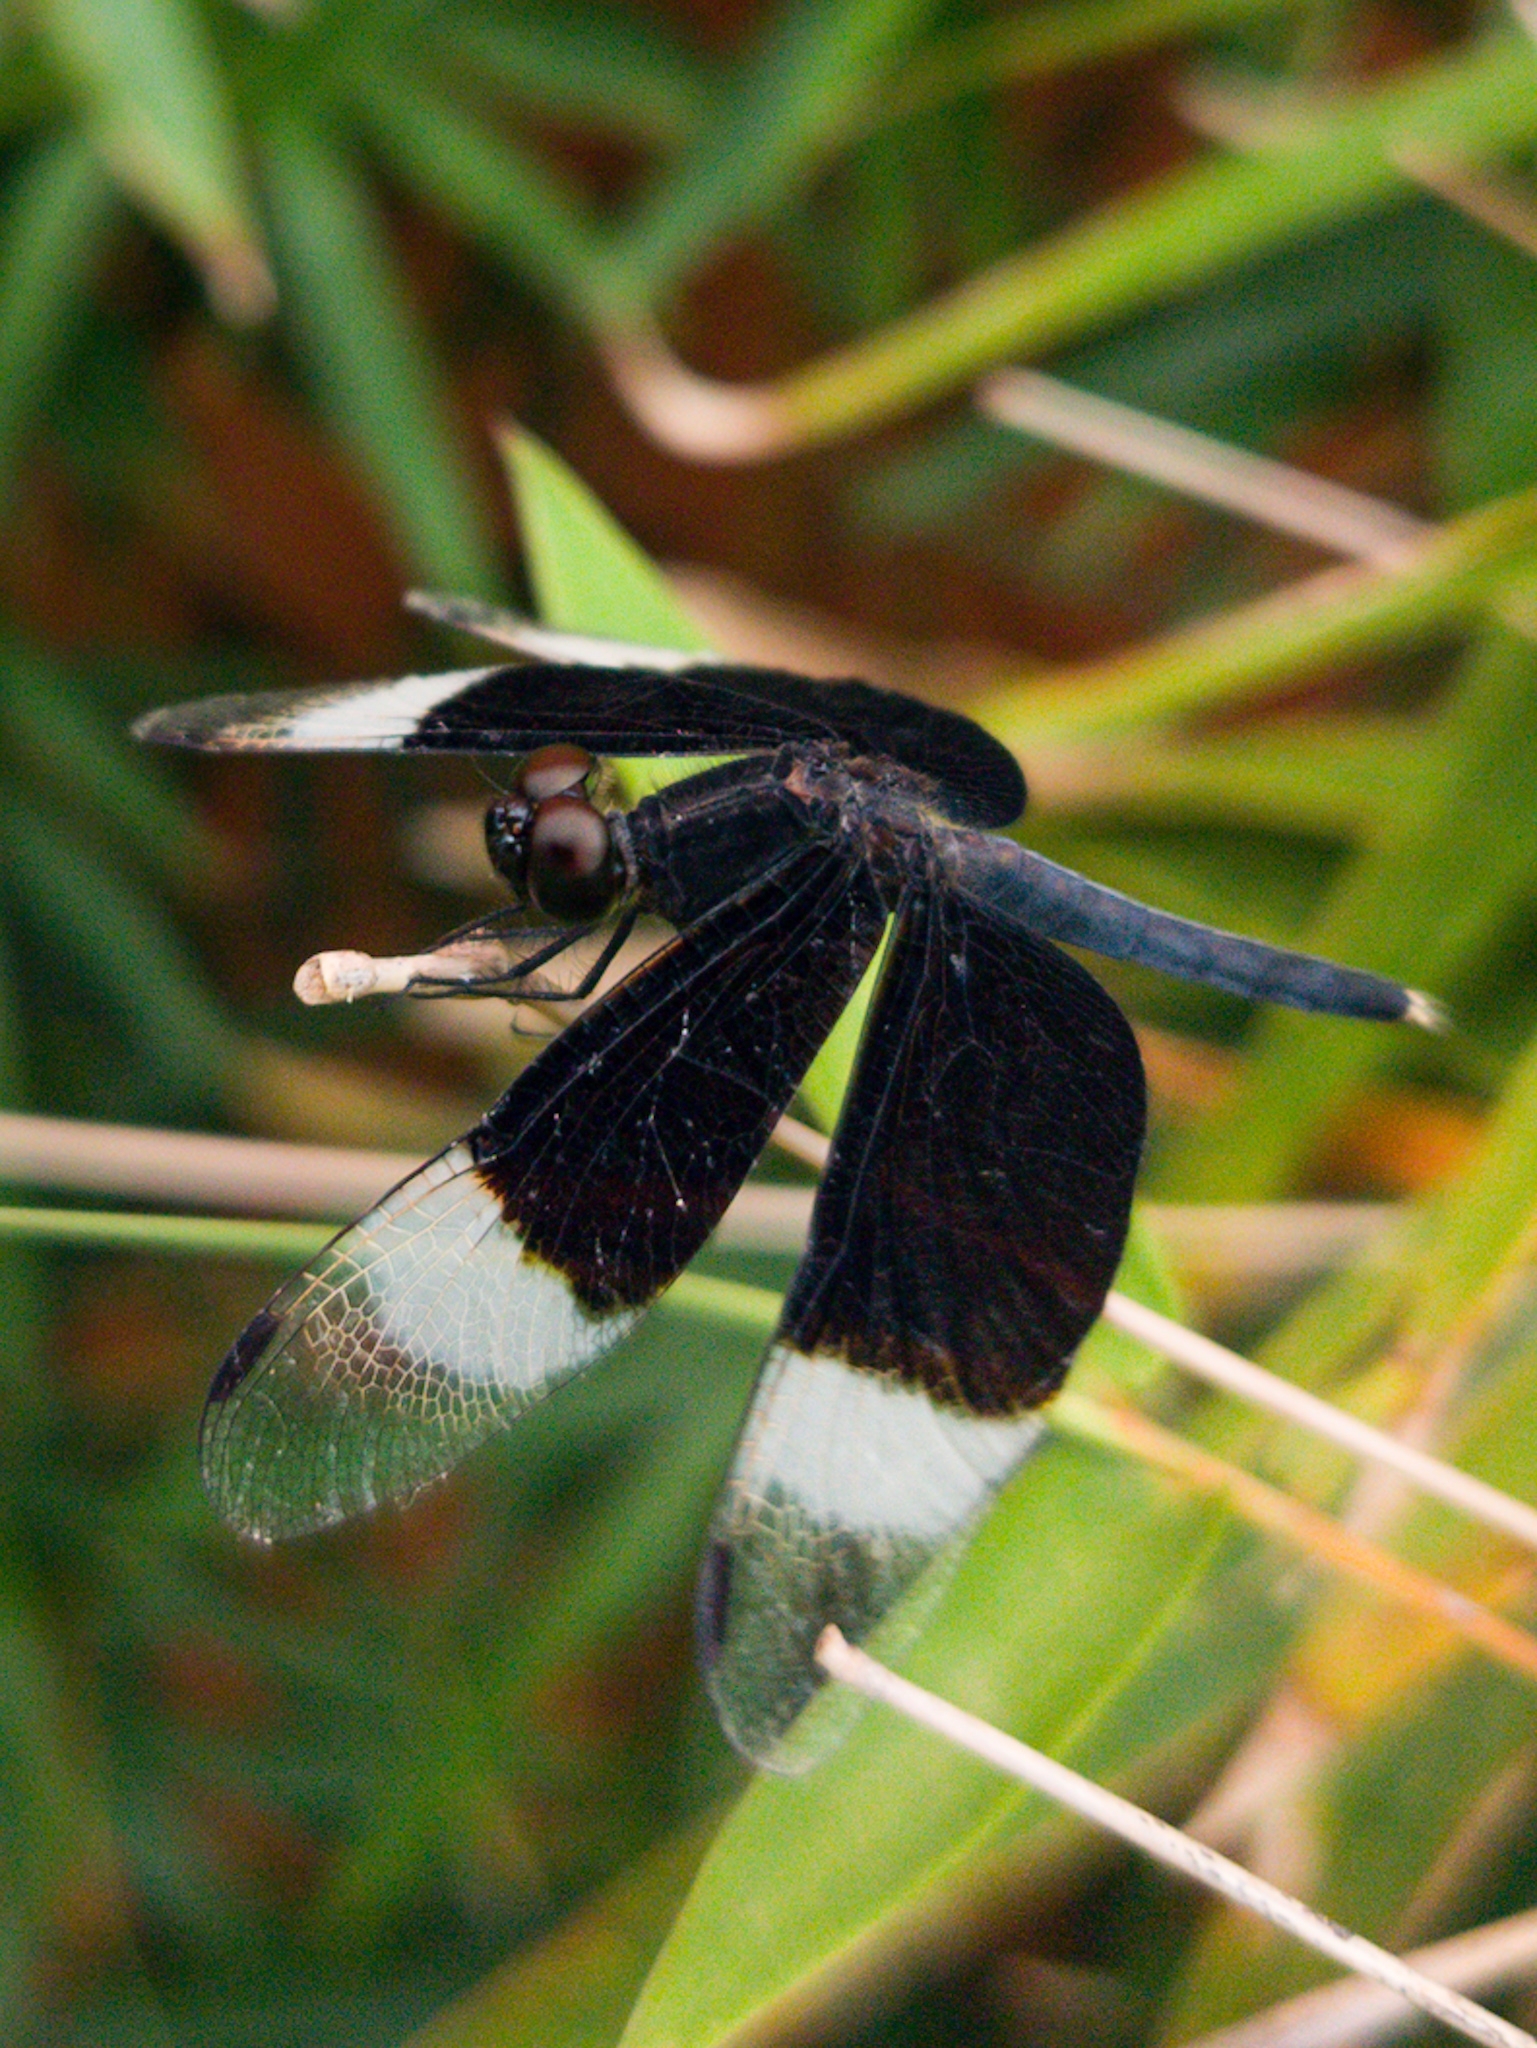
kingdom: Animalia
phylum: Arthropoda
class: Insecta
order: Odonata
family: Libellulidae
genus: Neurothemis
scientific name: Neurothemis tullia
